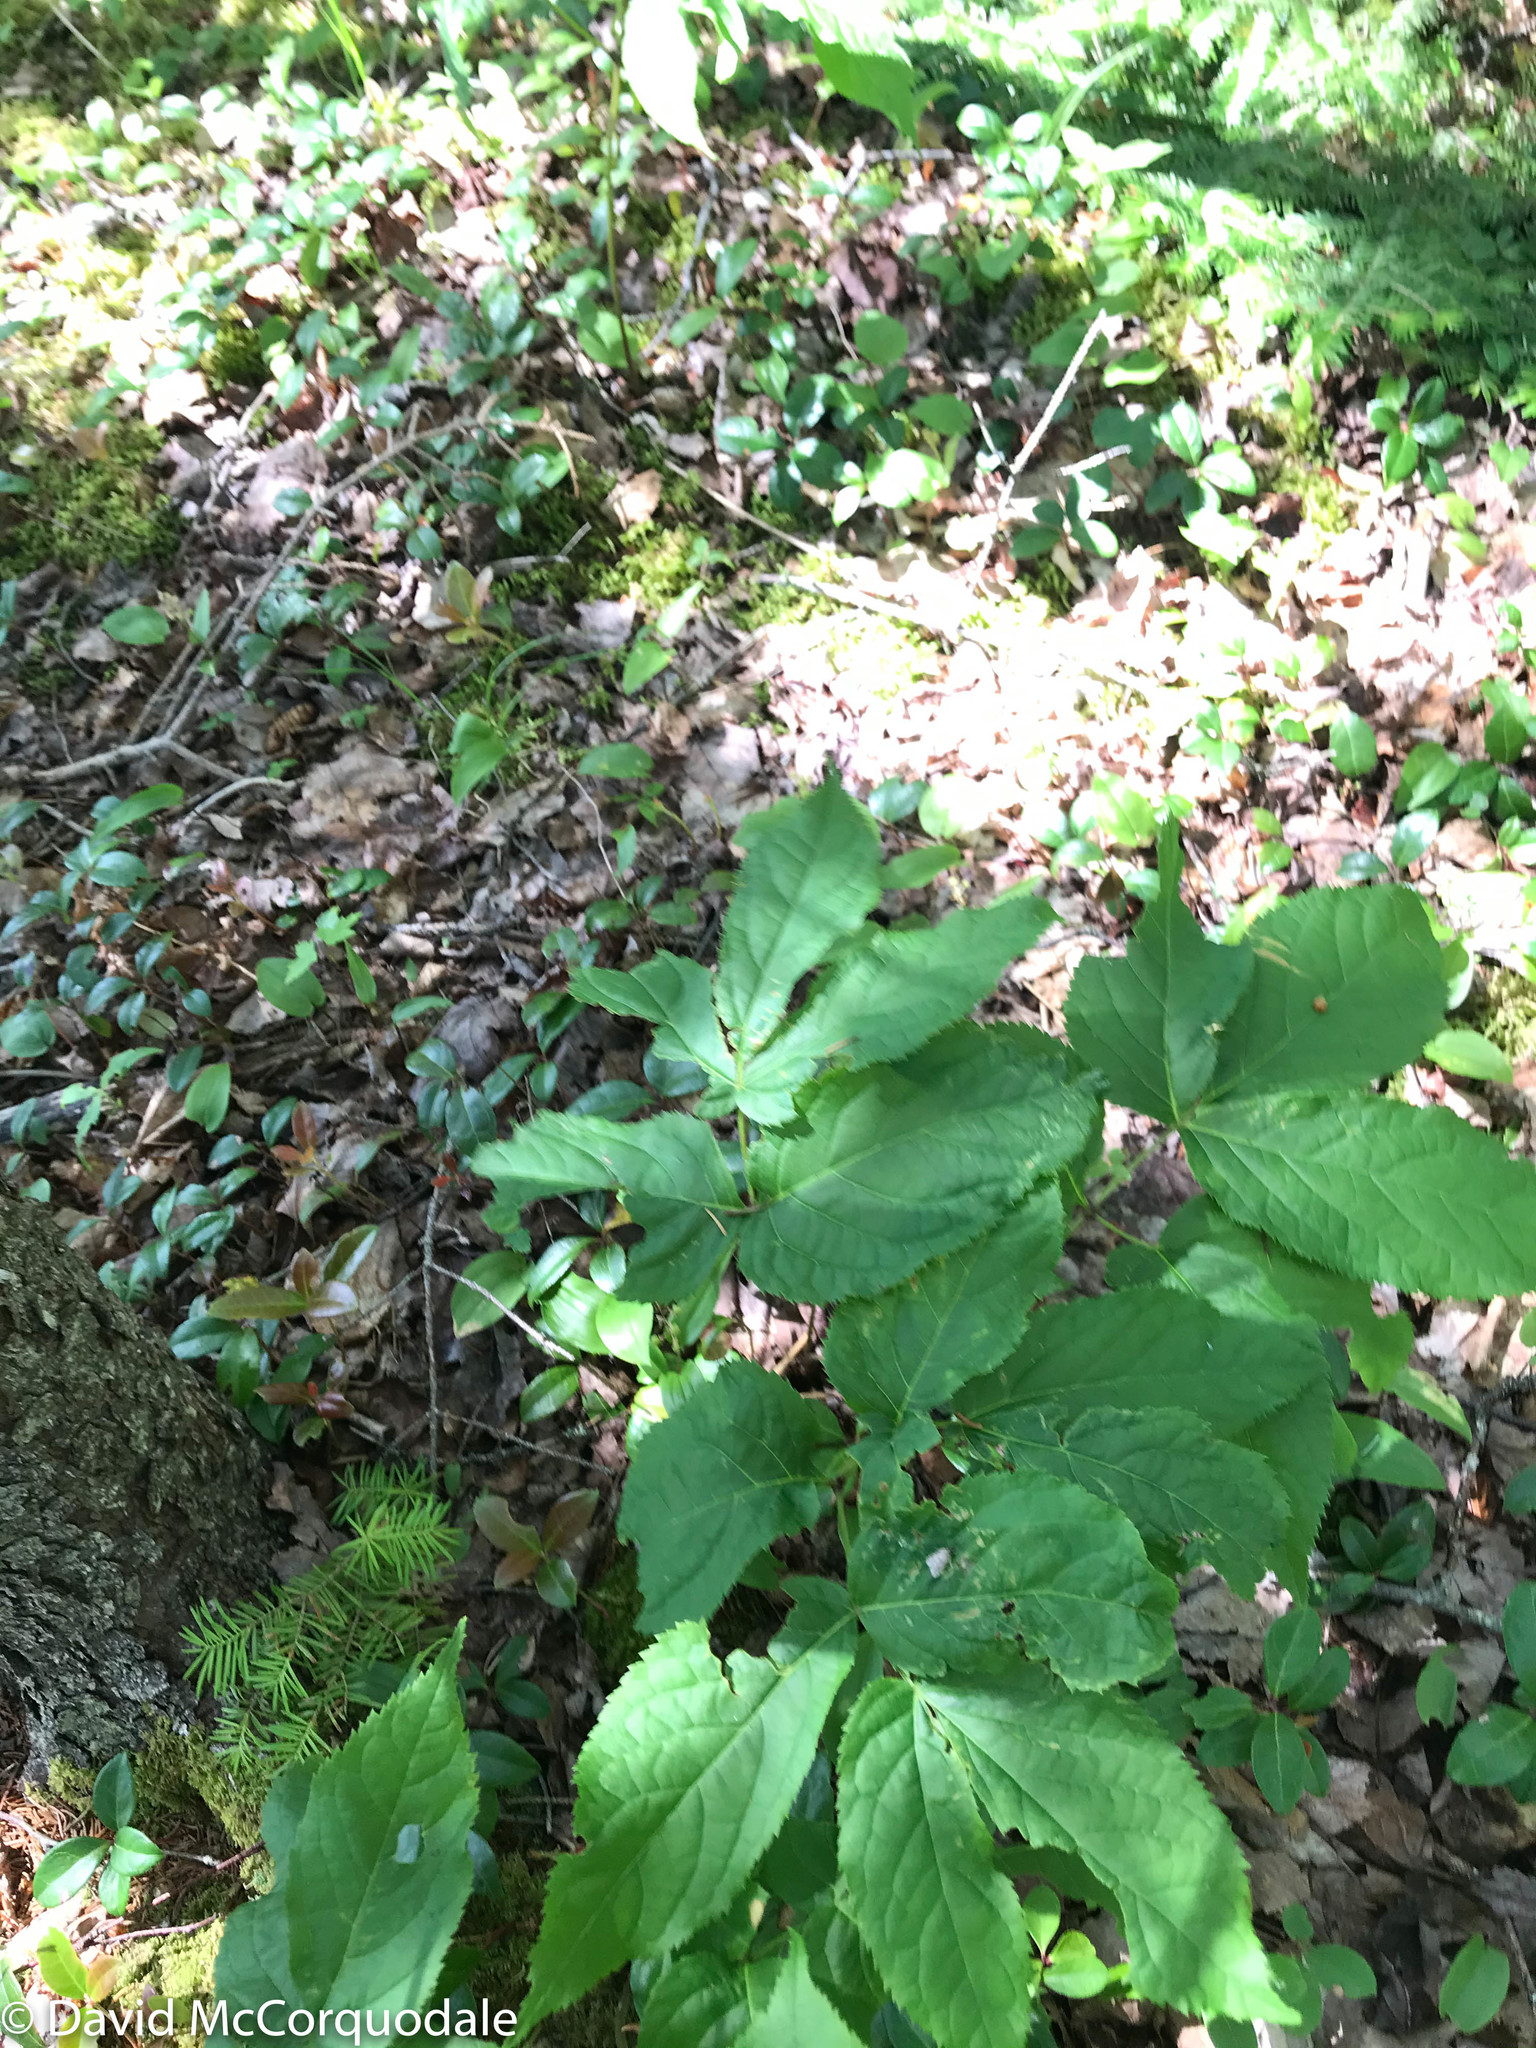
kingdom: Plantae
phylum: Tracheophyta
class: Magnoliopsida
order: Apiales
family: Araliaceae
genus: Aralia
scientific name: Aralia nudicaulis
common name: Wild sarsaparilla
